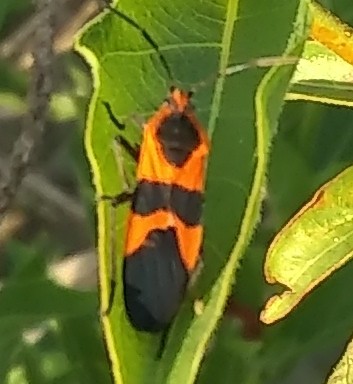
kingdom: Animalia
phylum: Arthropoda
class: Insecta
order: Hemiptera
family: Lygaeidae
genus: Oncopeltus
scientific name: Oncopeltus fasciatus
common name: Large milkweed bug
